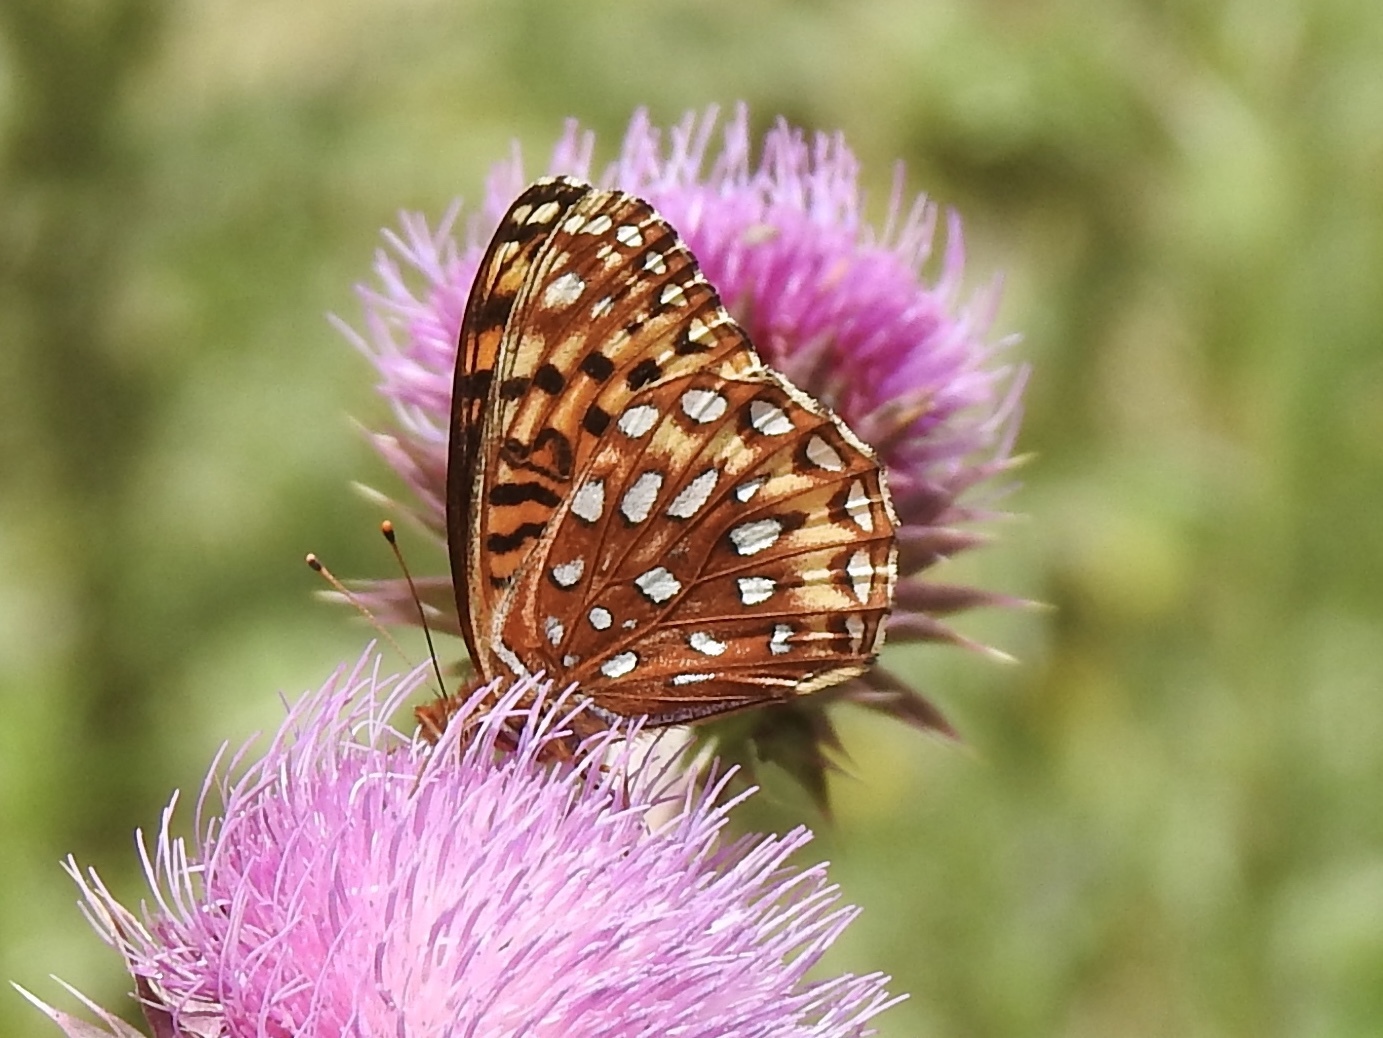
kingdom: Animalia
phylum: Arthropoda
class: Insecta
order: Lepidoptera
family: Nymphalidae
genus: Speyeria
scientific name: Speyeria atlantis
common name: Atlantis fritillary
